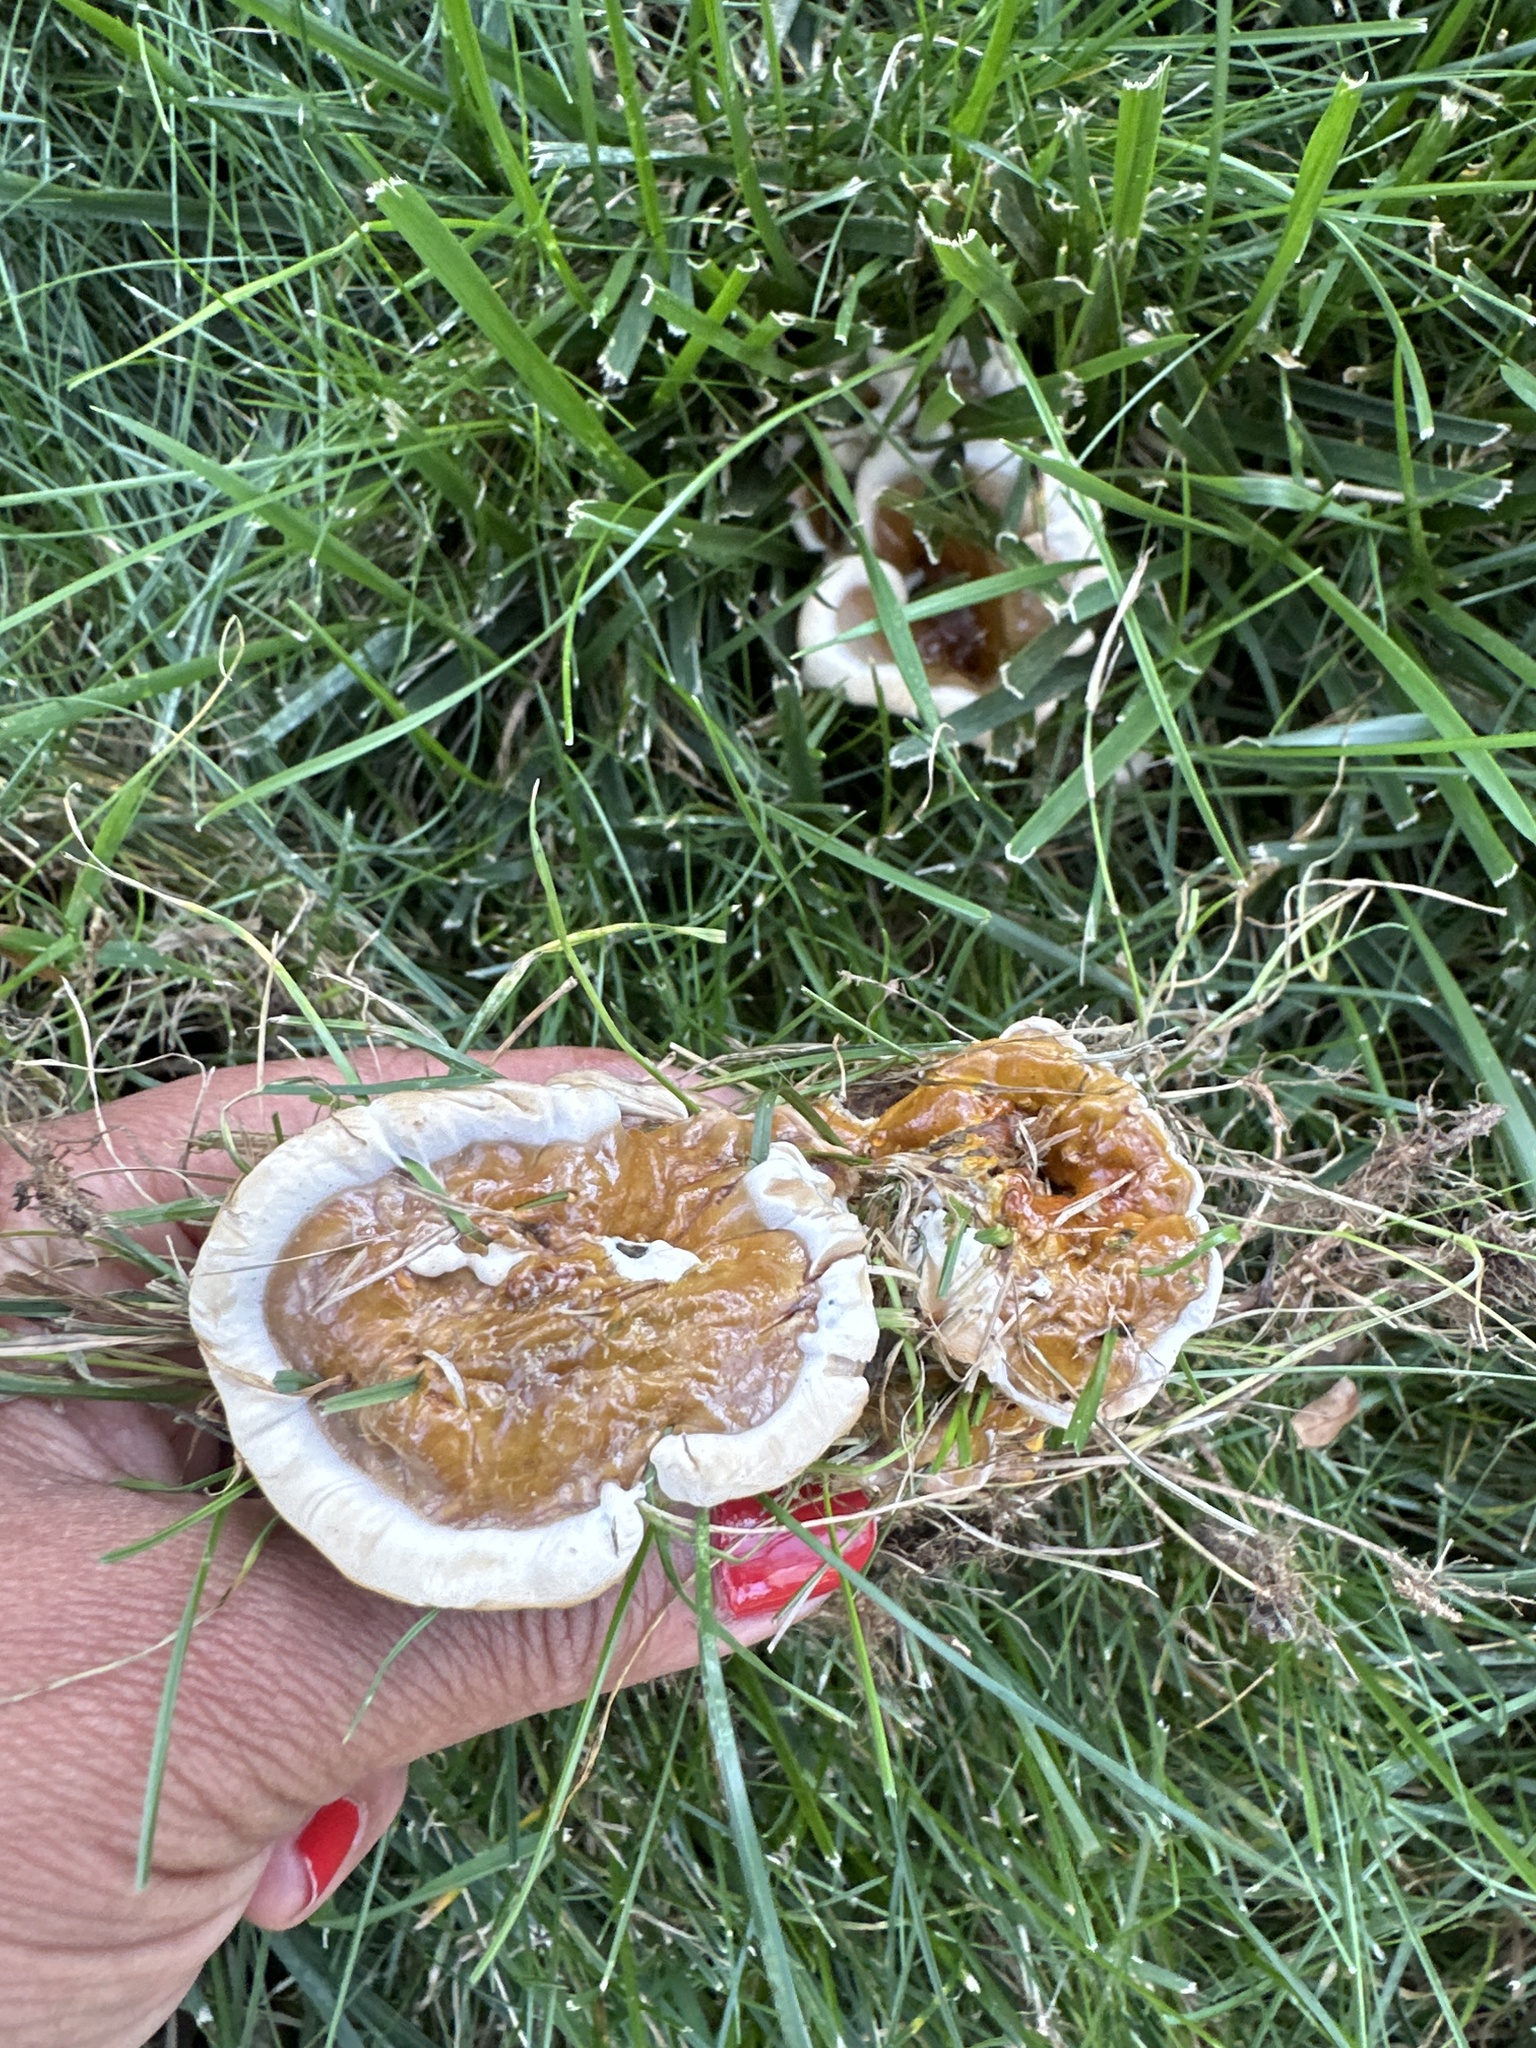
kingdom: Fungi
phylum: Basidiomycota
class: Agaricomycetes
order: Polyporales
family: Polyporaceae
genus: Ganoderma
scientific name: Ganoderma resinaceum
